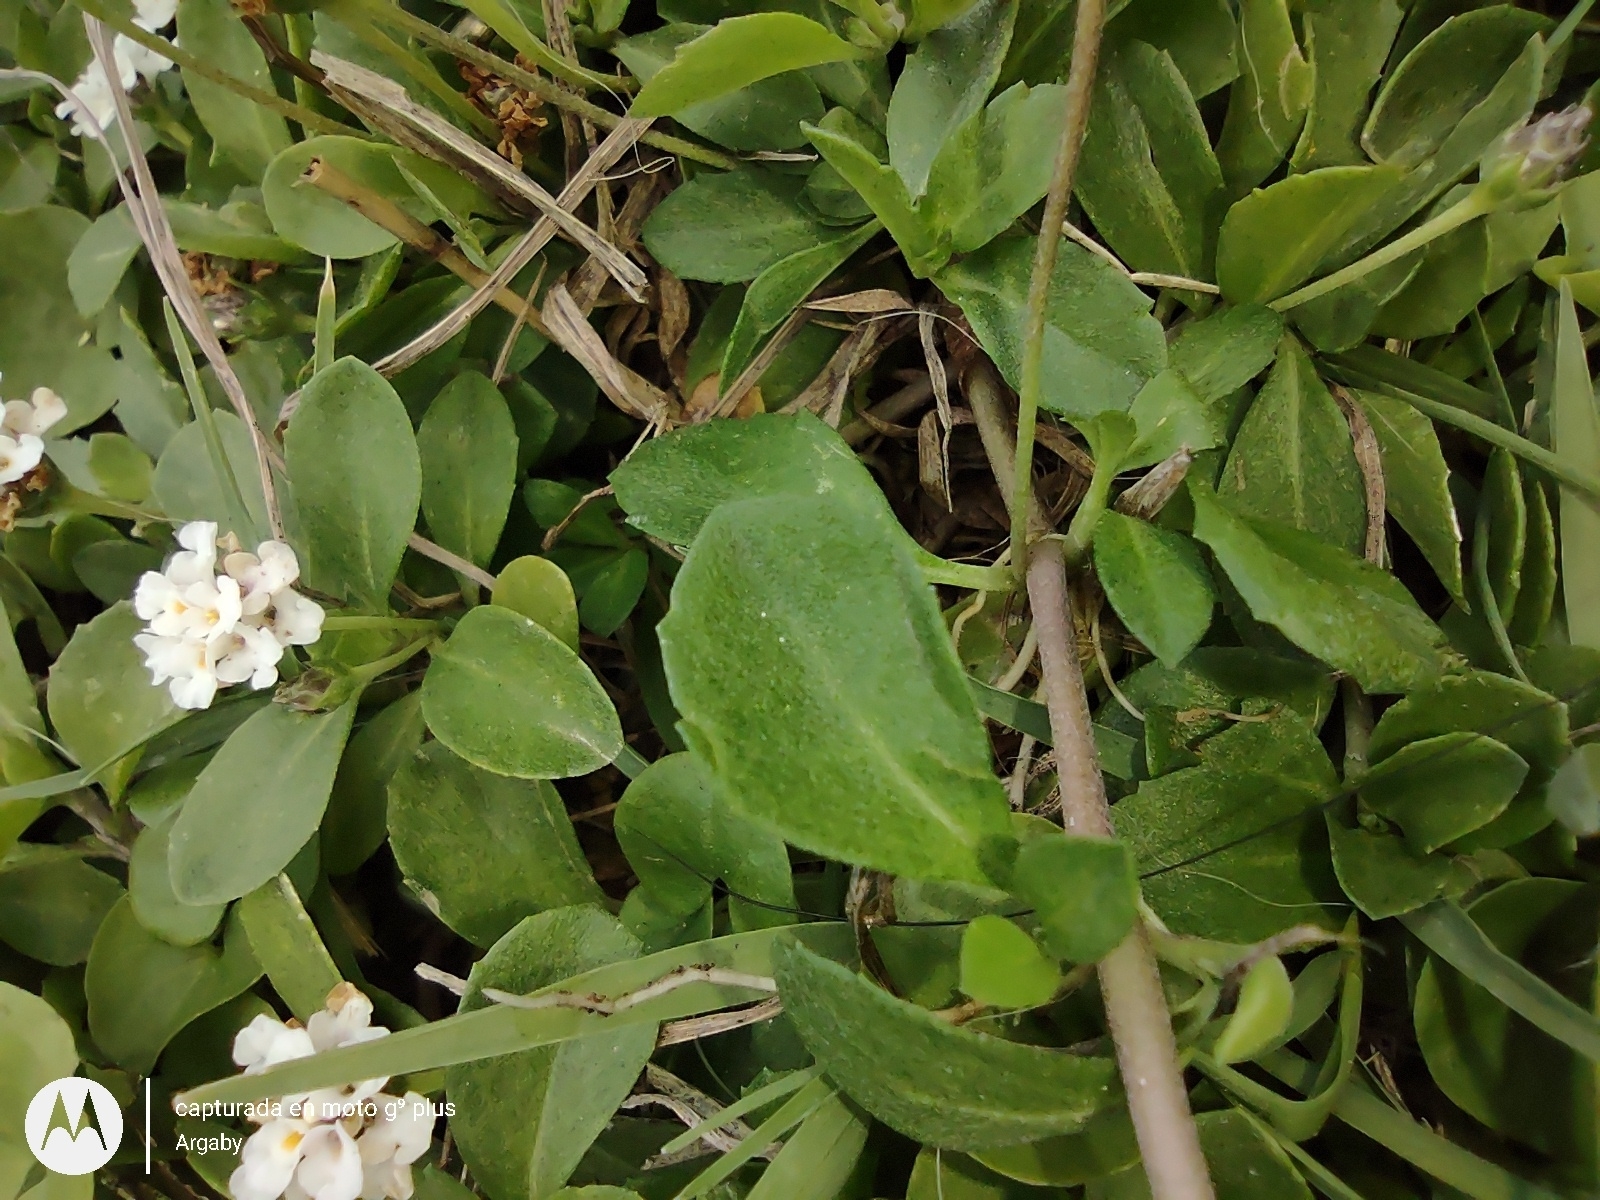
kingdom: Plantae
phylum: Tracheophyta
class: Magnoliopsida
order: Lamiales
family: Verbenaceae
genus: Phyla
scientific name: Phyla nodiflora
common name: Frogfruit
